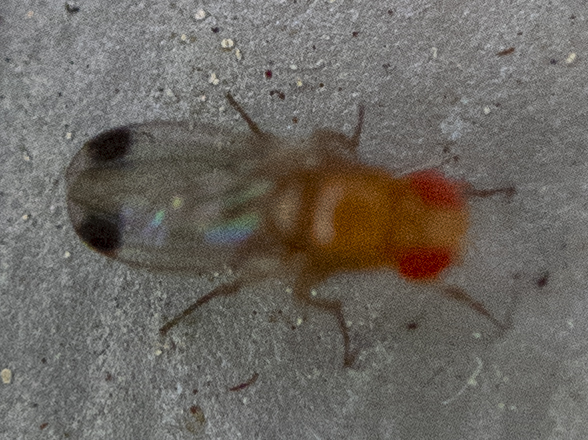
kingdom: Animalia
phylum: Arthropoda
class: Insecta
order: Diptera
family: Drosophilidae
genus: Drosophila
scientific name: Drosophila suzukii
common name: Spotted-wing drosophila
